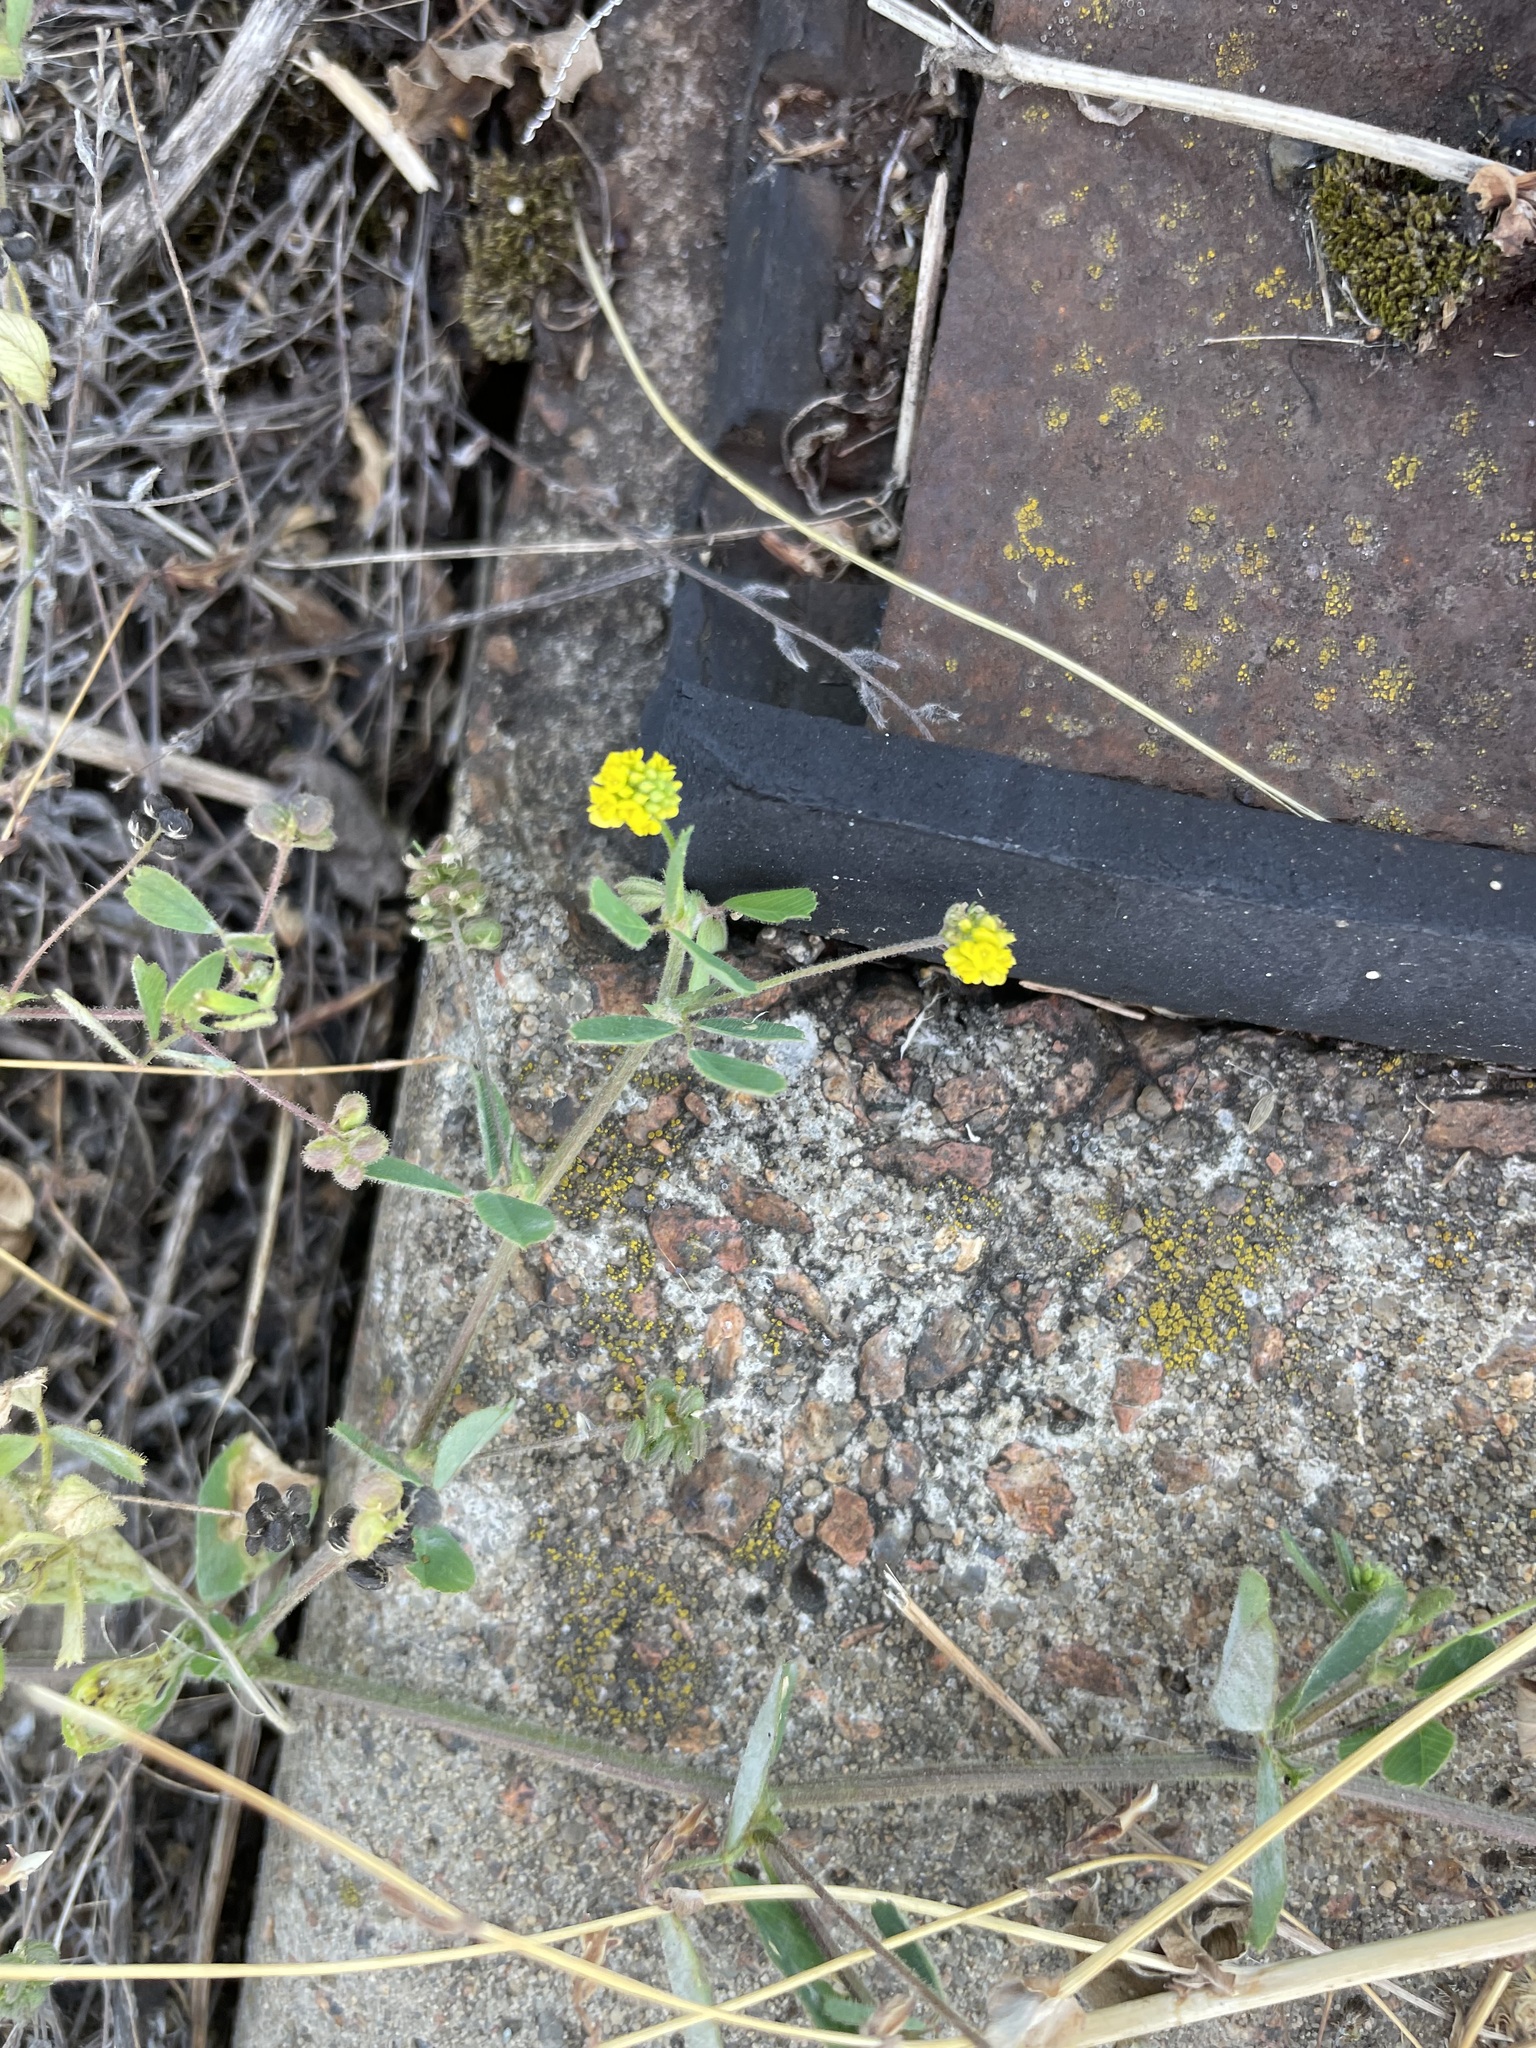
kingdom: Plantae
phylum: Tracheophyta
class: Magnoliopsida
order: Fabales
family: Fabaceae
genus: Medicago
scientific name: Medicago lupulina
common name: Black medick
